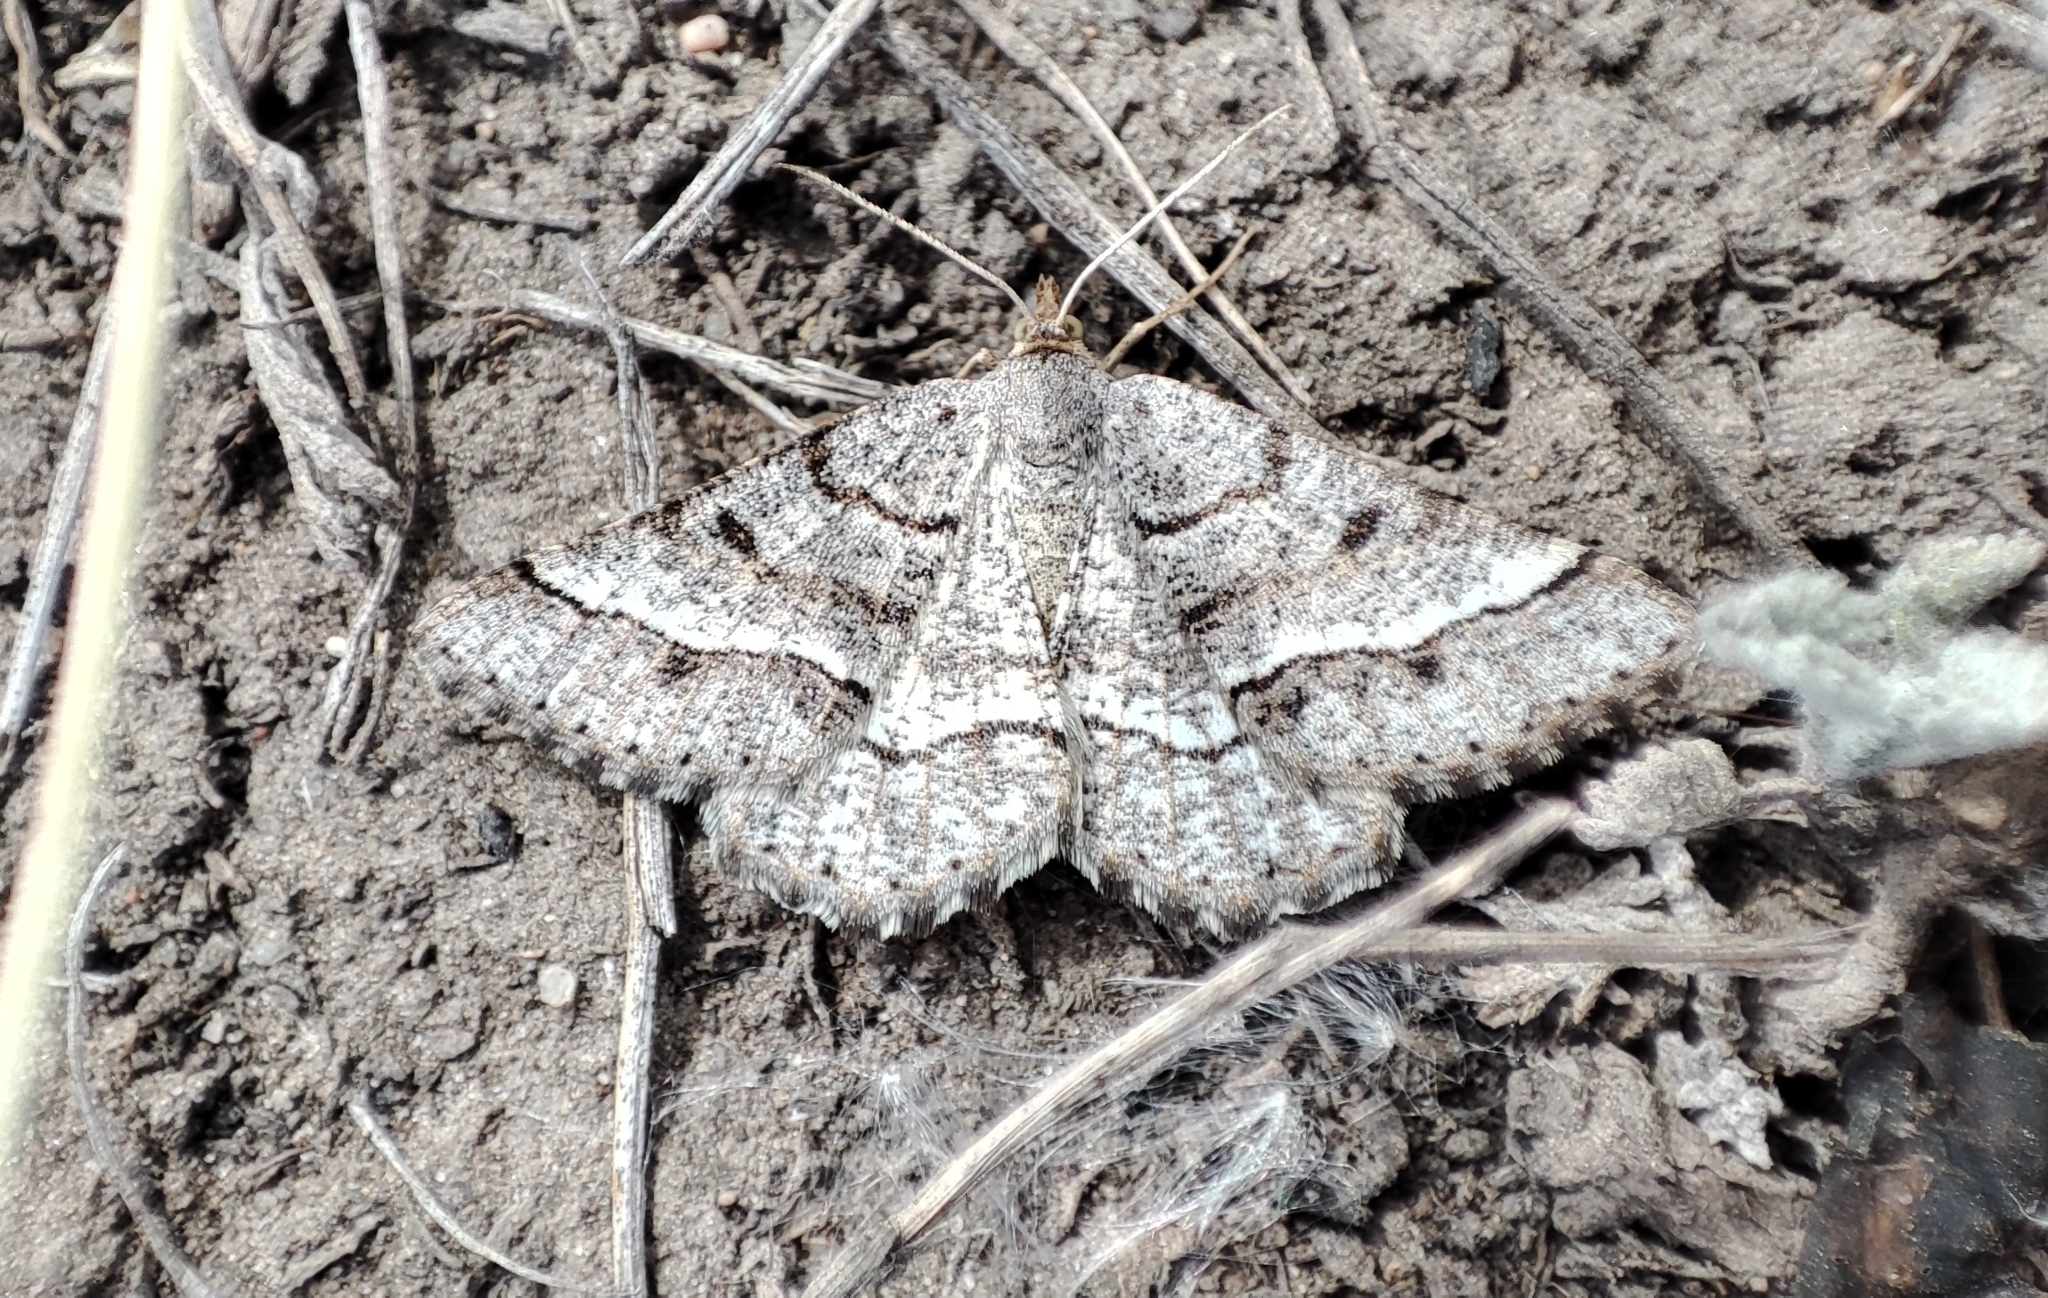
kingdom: Animalia
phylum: Arthropoda
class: Insecta
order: Lepidoptera
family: Geometridae
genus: Tephrina
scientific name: Tephrina murinaria
